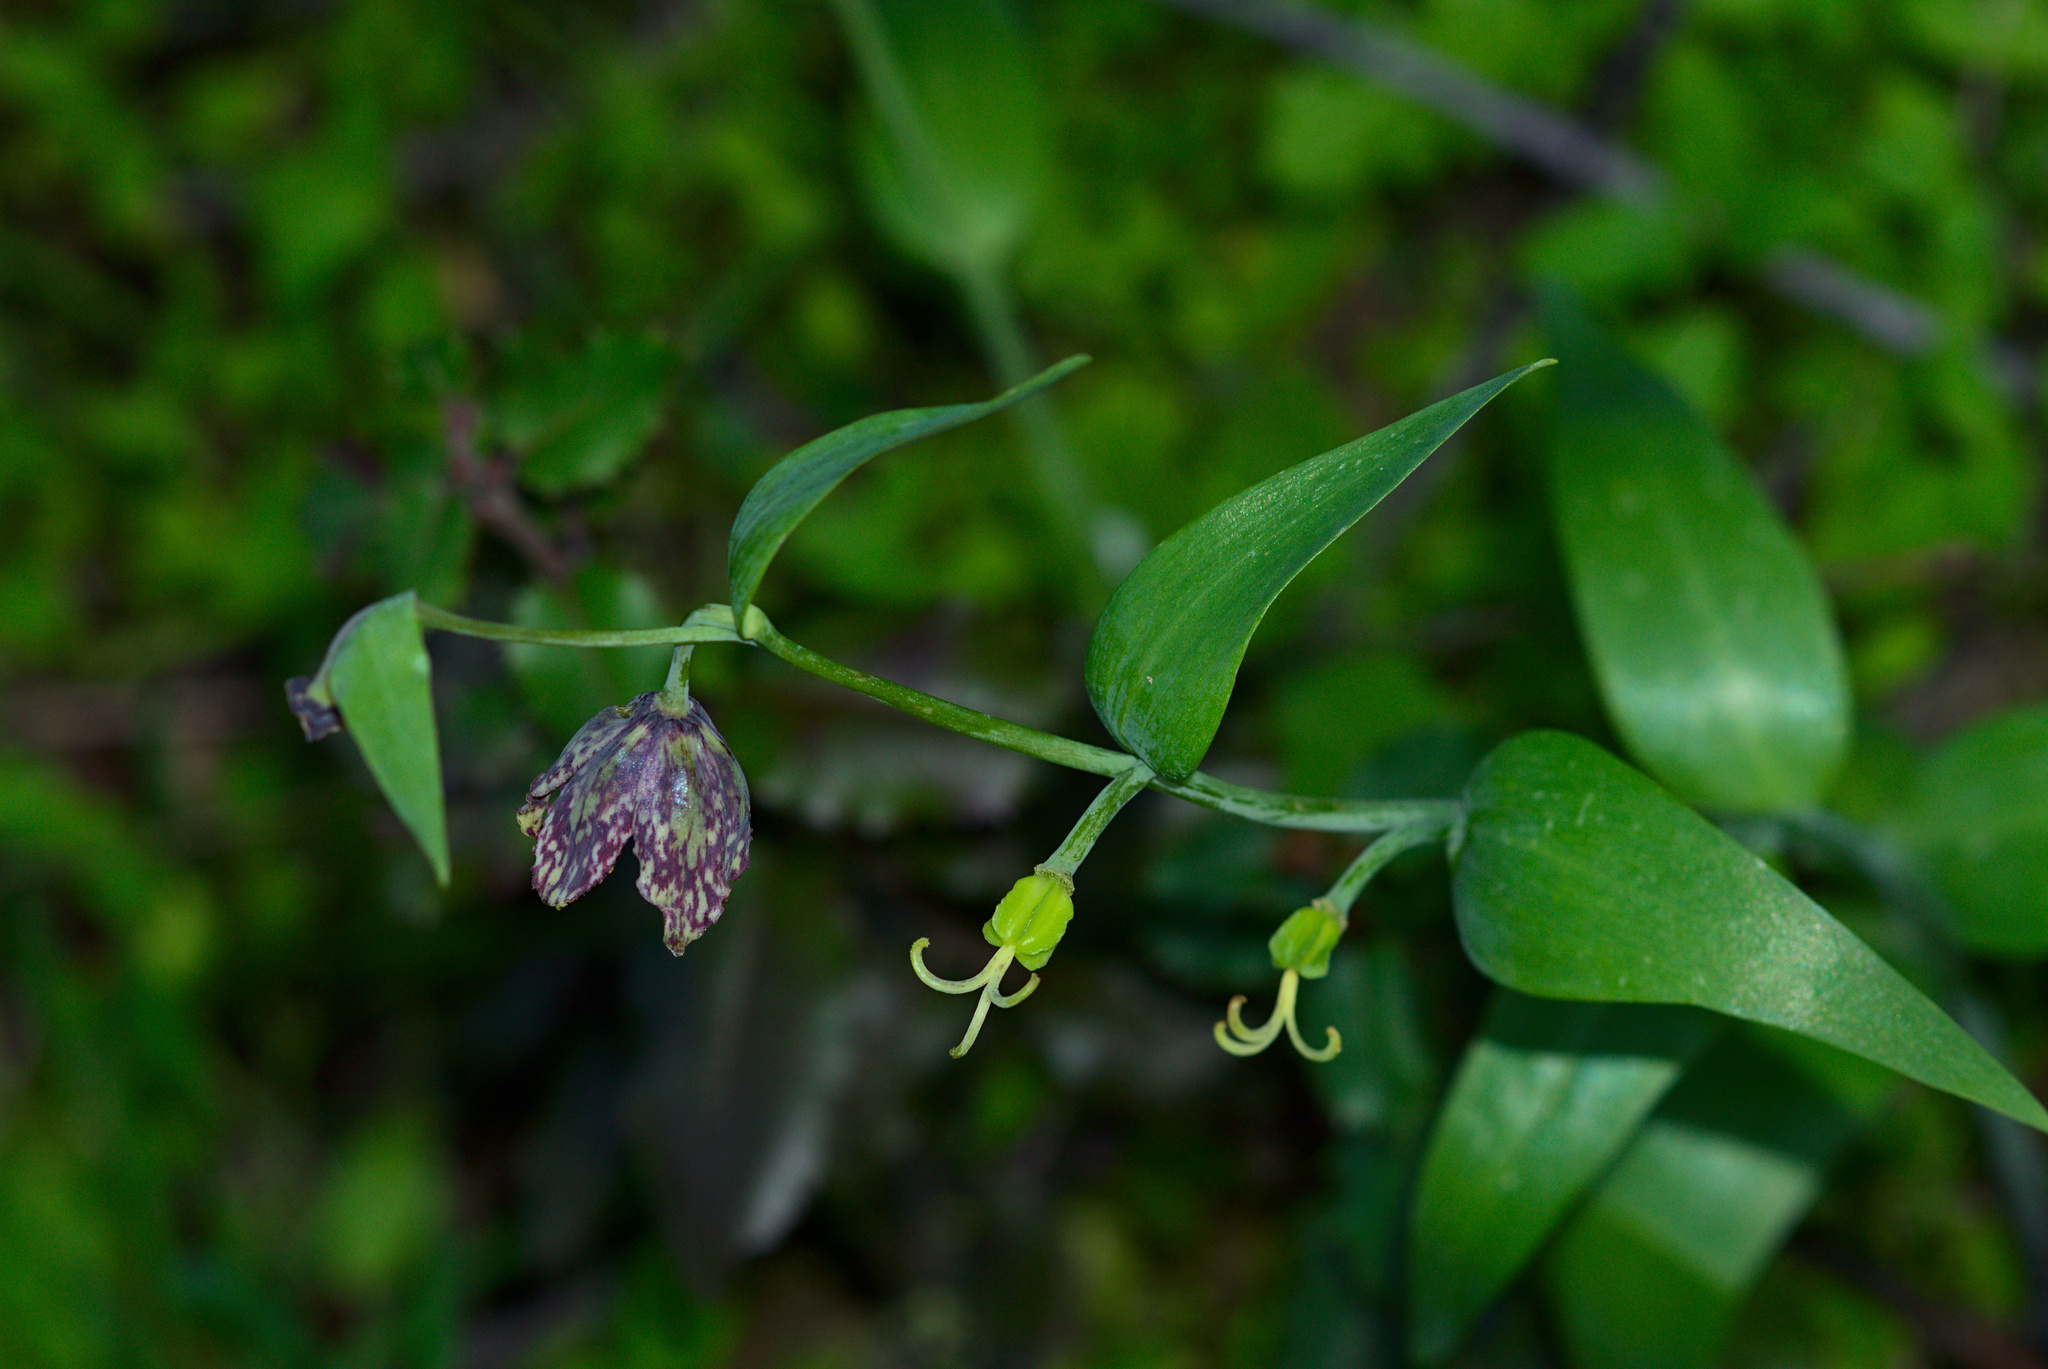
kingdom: Plantae
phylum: Tracheophyta
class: Liliopsida
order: Liliales
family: Liliaceae
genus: Fritillaria
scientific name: Fritillaria affinis
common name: Ojai fritillary
